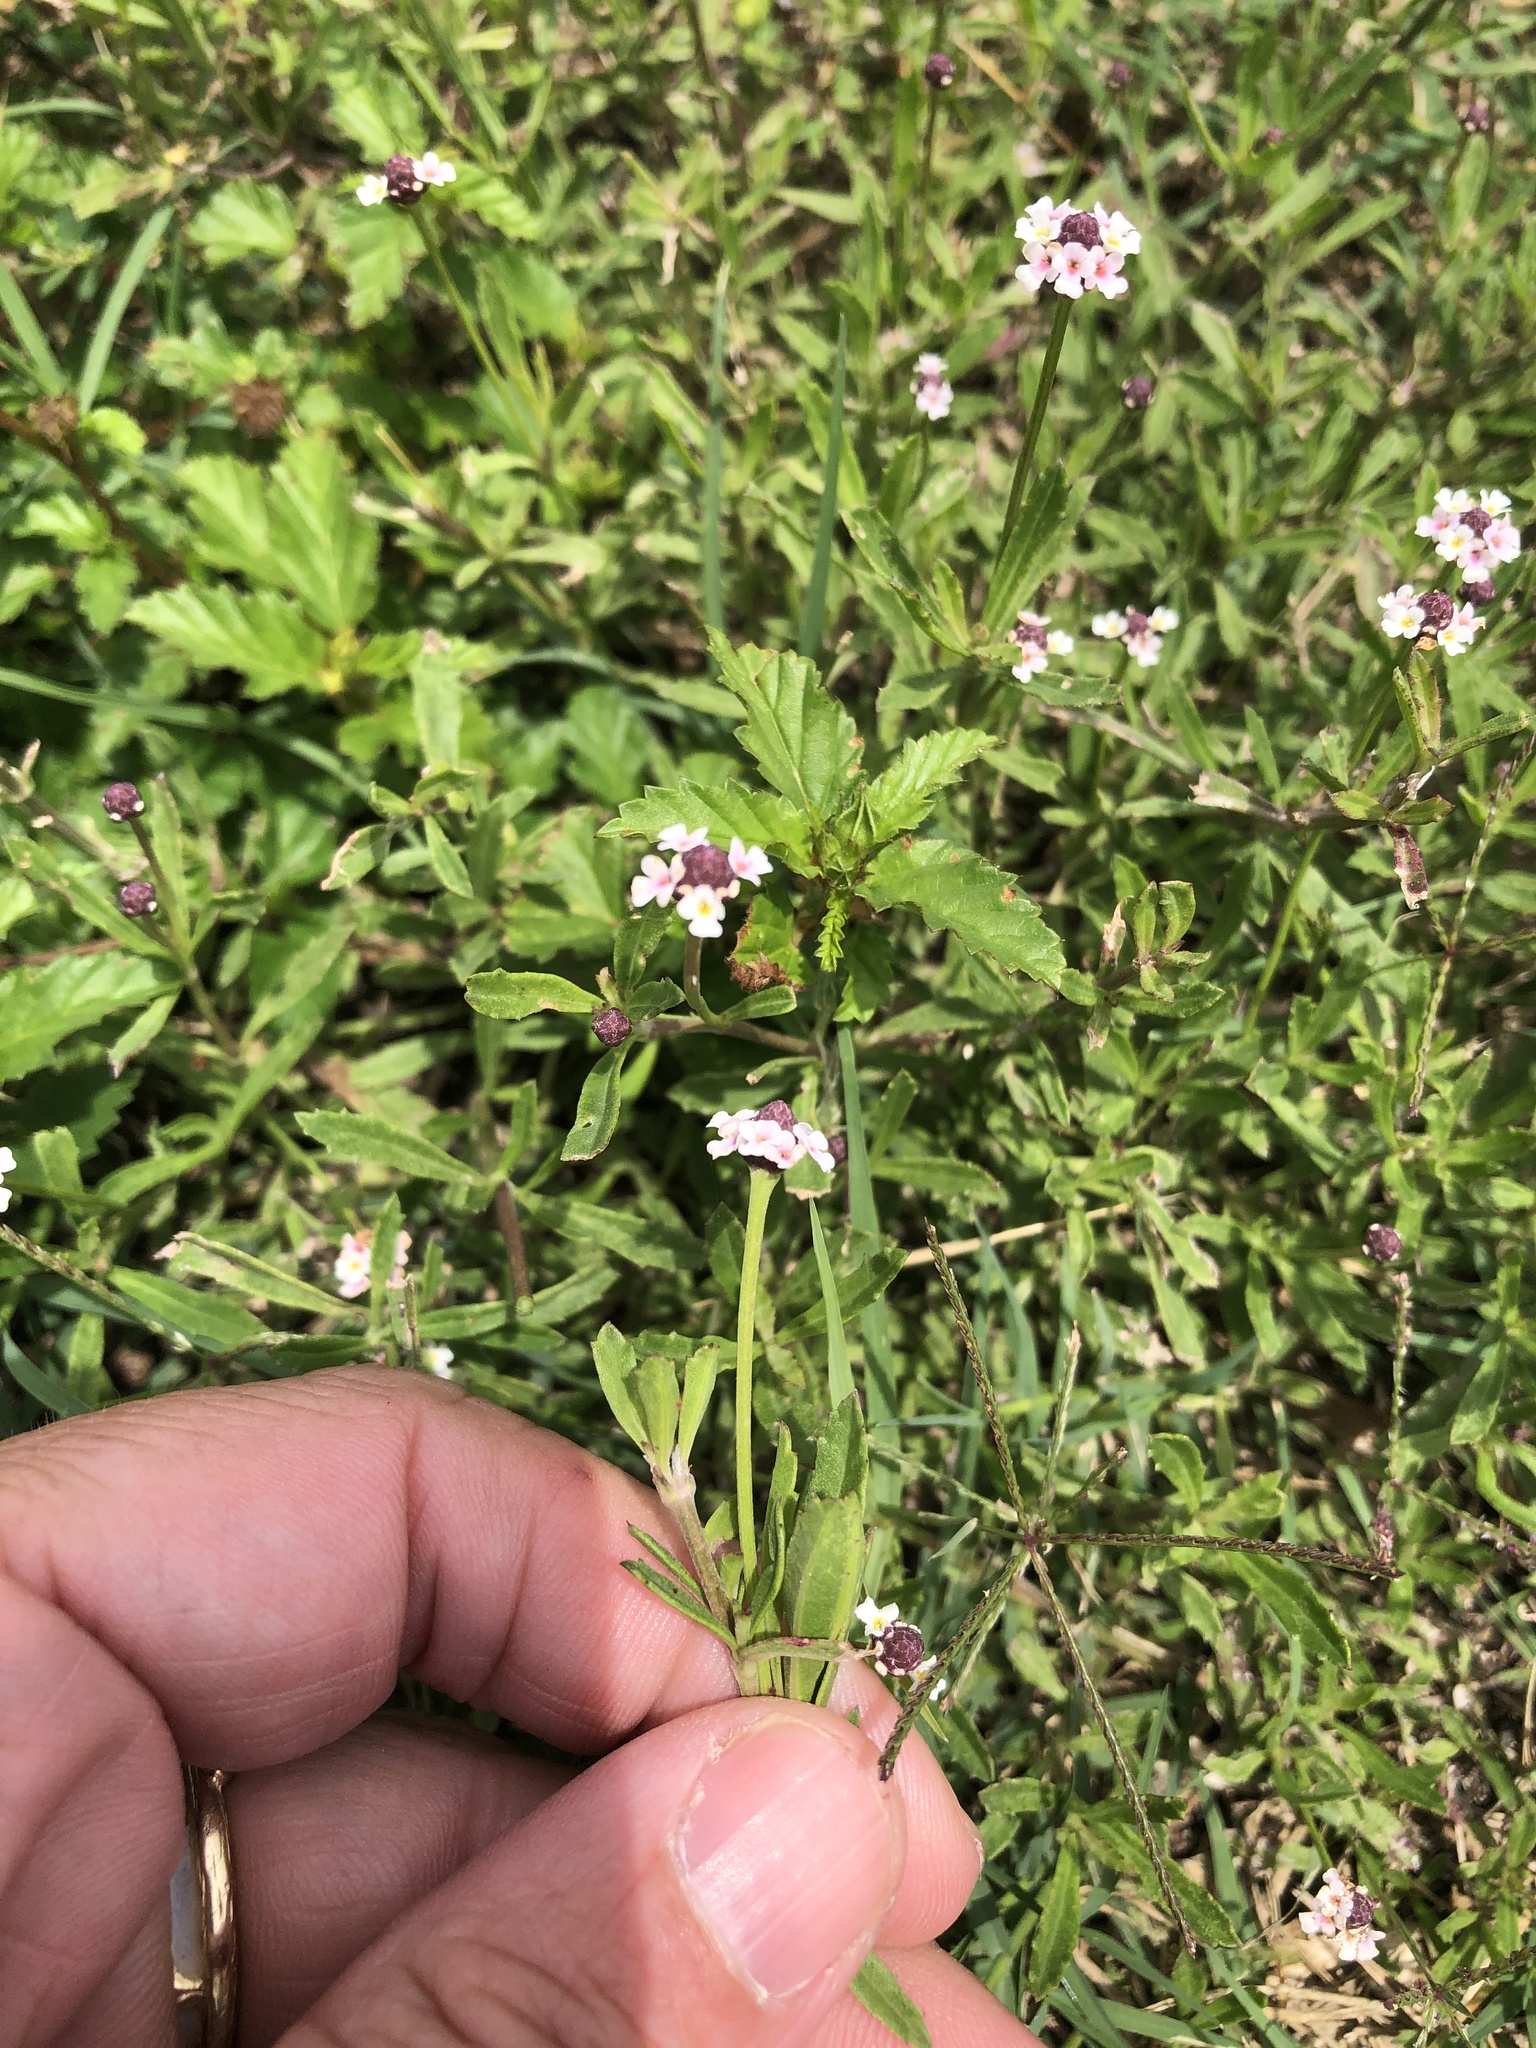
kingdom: Plantae
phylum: Tracheophyta
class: Magnoliopsida
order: Lamiales
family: Verbenaceae
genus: Phyla
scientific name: Phyla nodiflora
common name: Frogfruit
